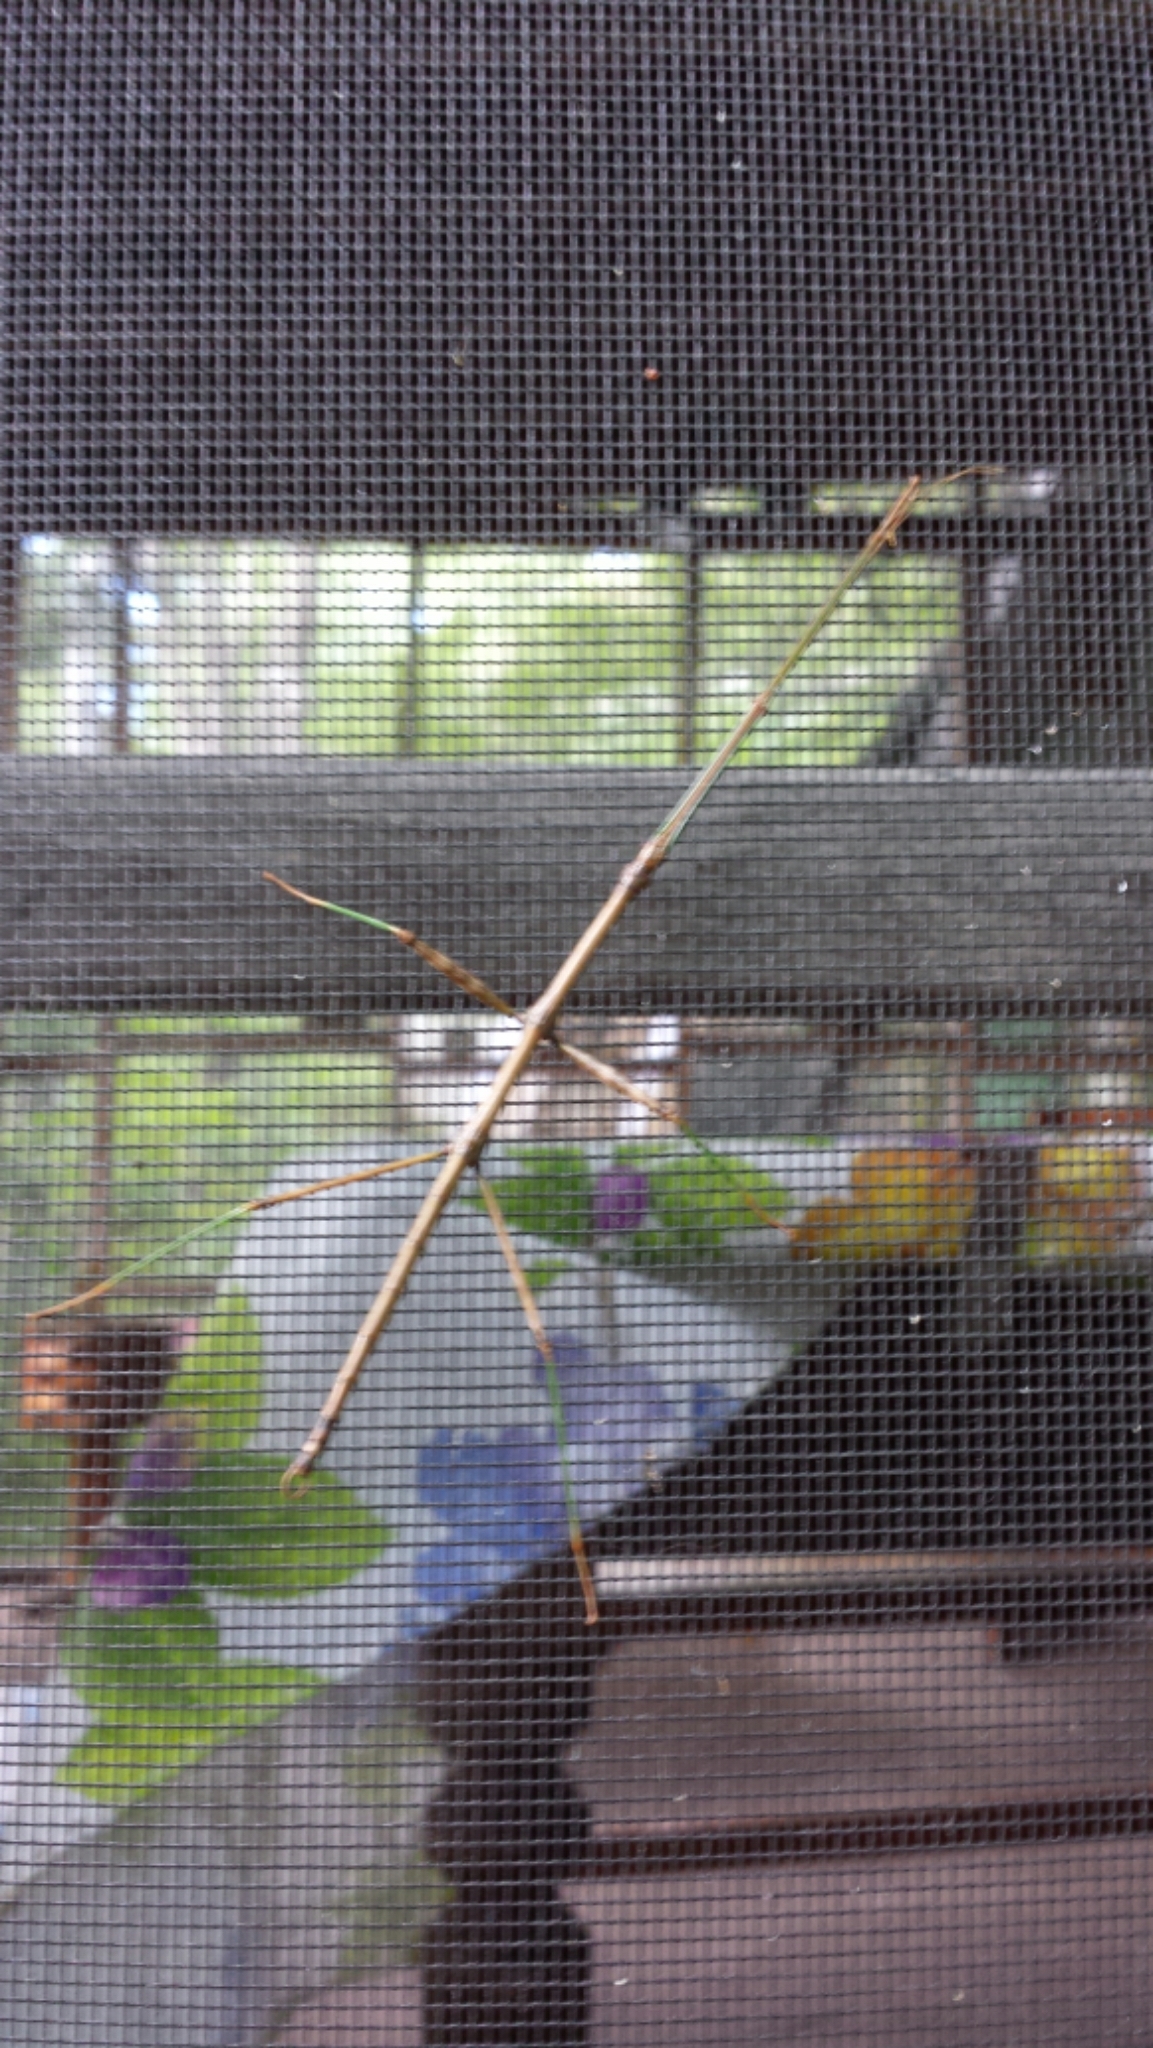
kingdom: Animalia
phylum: Arthropoda
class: Insecta
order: Phasmida
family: Diapheromeridae
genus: Diapheromera
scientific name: Diapheromera femorata
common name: Common american walkingstick
